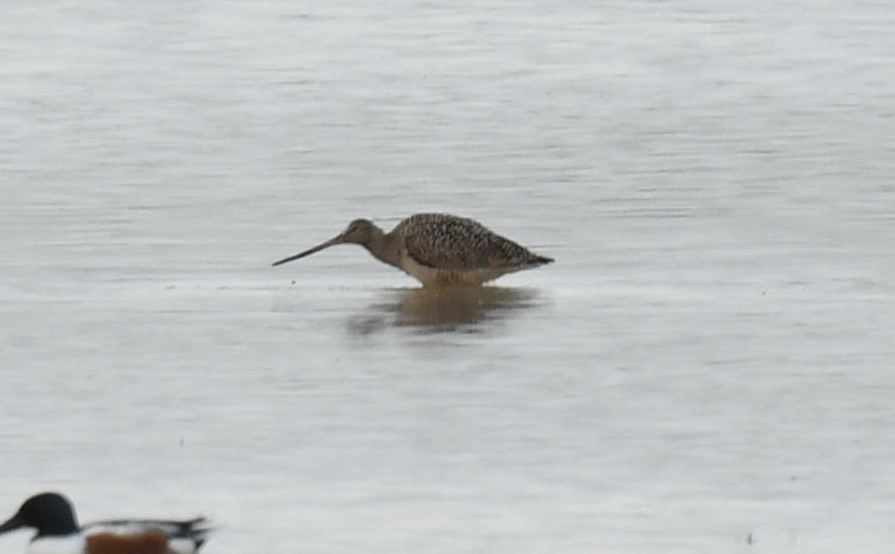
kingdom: Animalia
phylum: Chordata
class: Aves
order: Charadriiformes
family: Scolopacidae
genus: Limosa
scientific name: Limosa fedoa
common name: Marbled godwit
